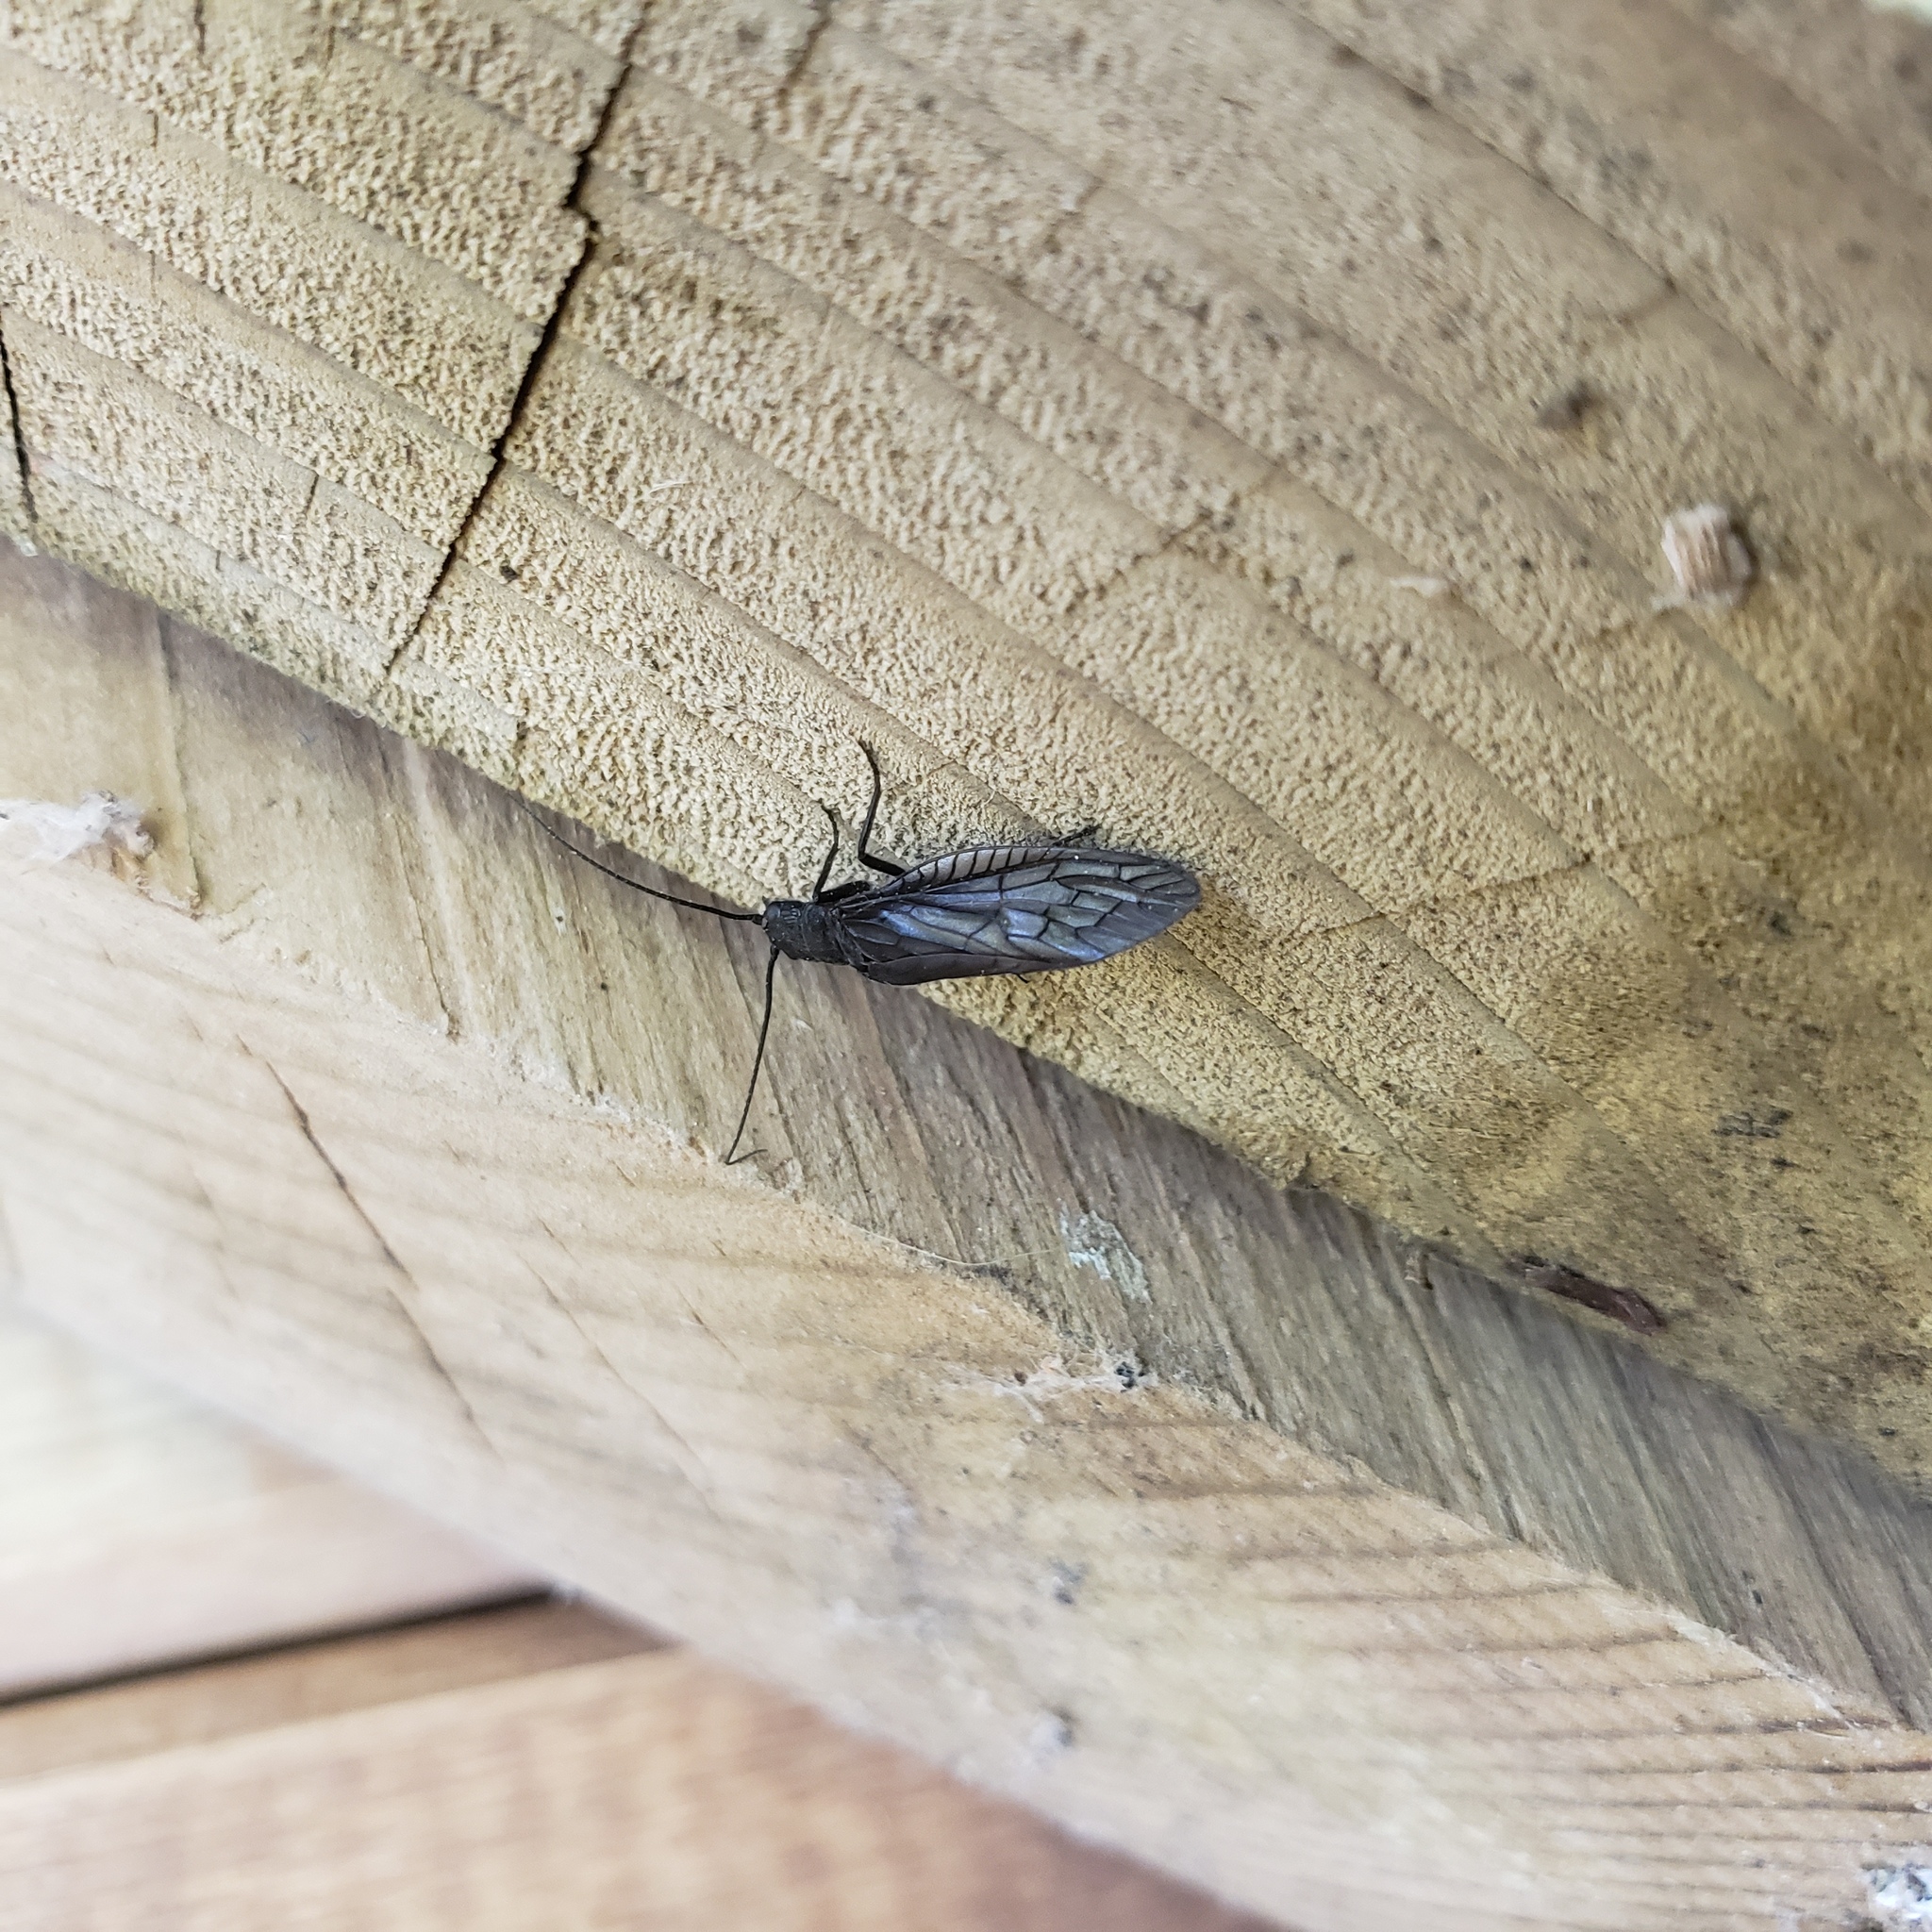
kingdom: Animalia
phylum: Arthropoda
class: Insecta
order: Megaloptera
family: Sialidae
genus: Sialis
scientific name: Sialis
